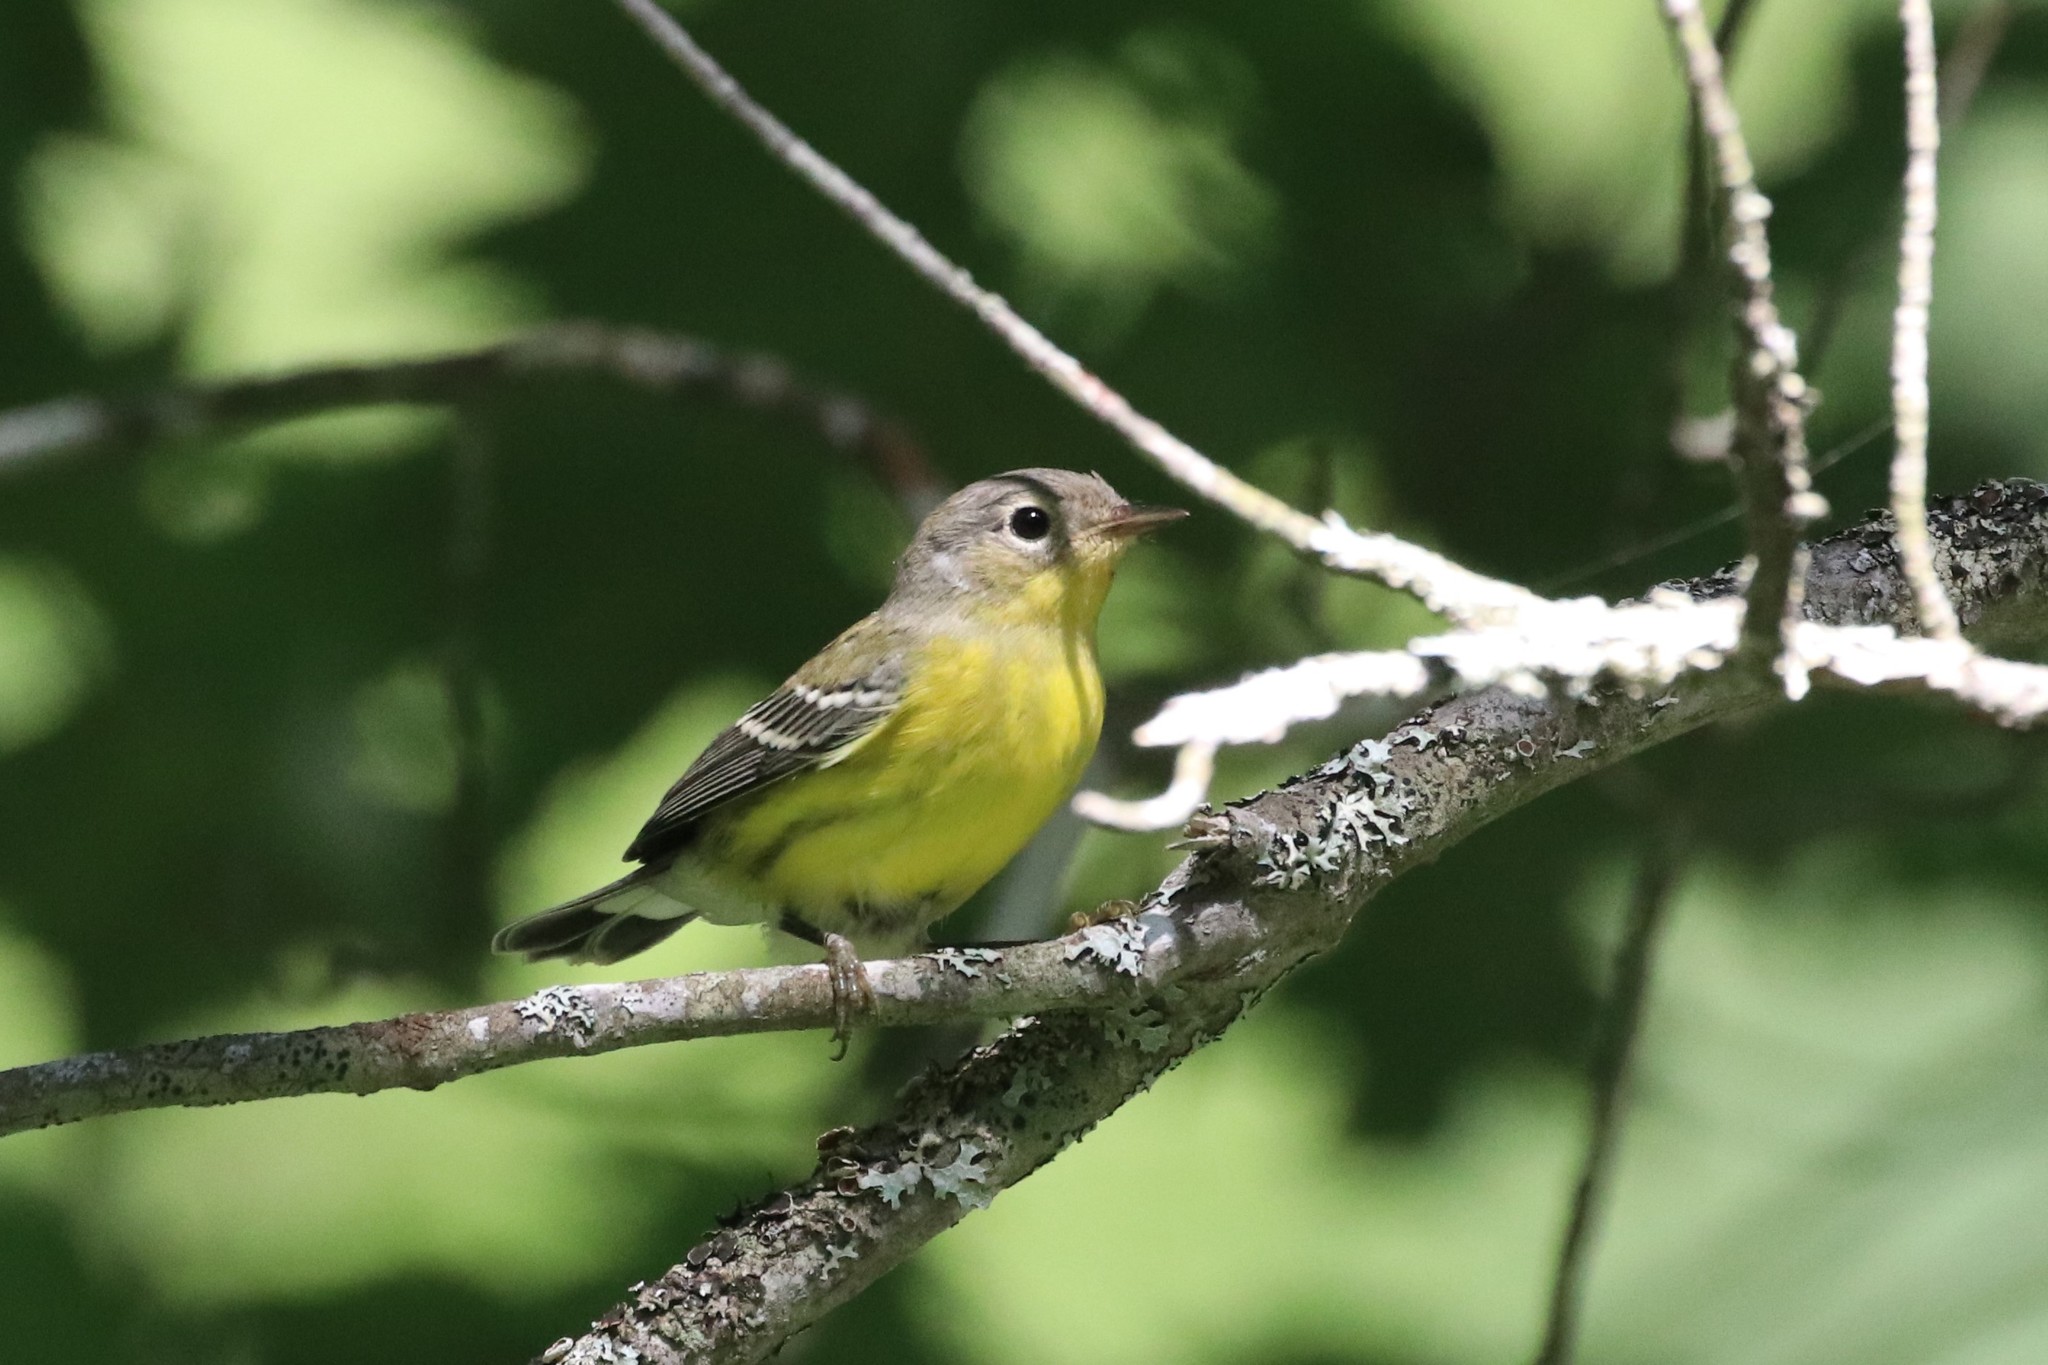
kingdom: Animalia
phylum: Chordata
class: Aves
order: Passeriformes
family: Parulidae
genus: Setophaga
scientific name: Setophaga magnolia
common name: Magnolia warbler
